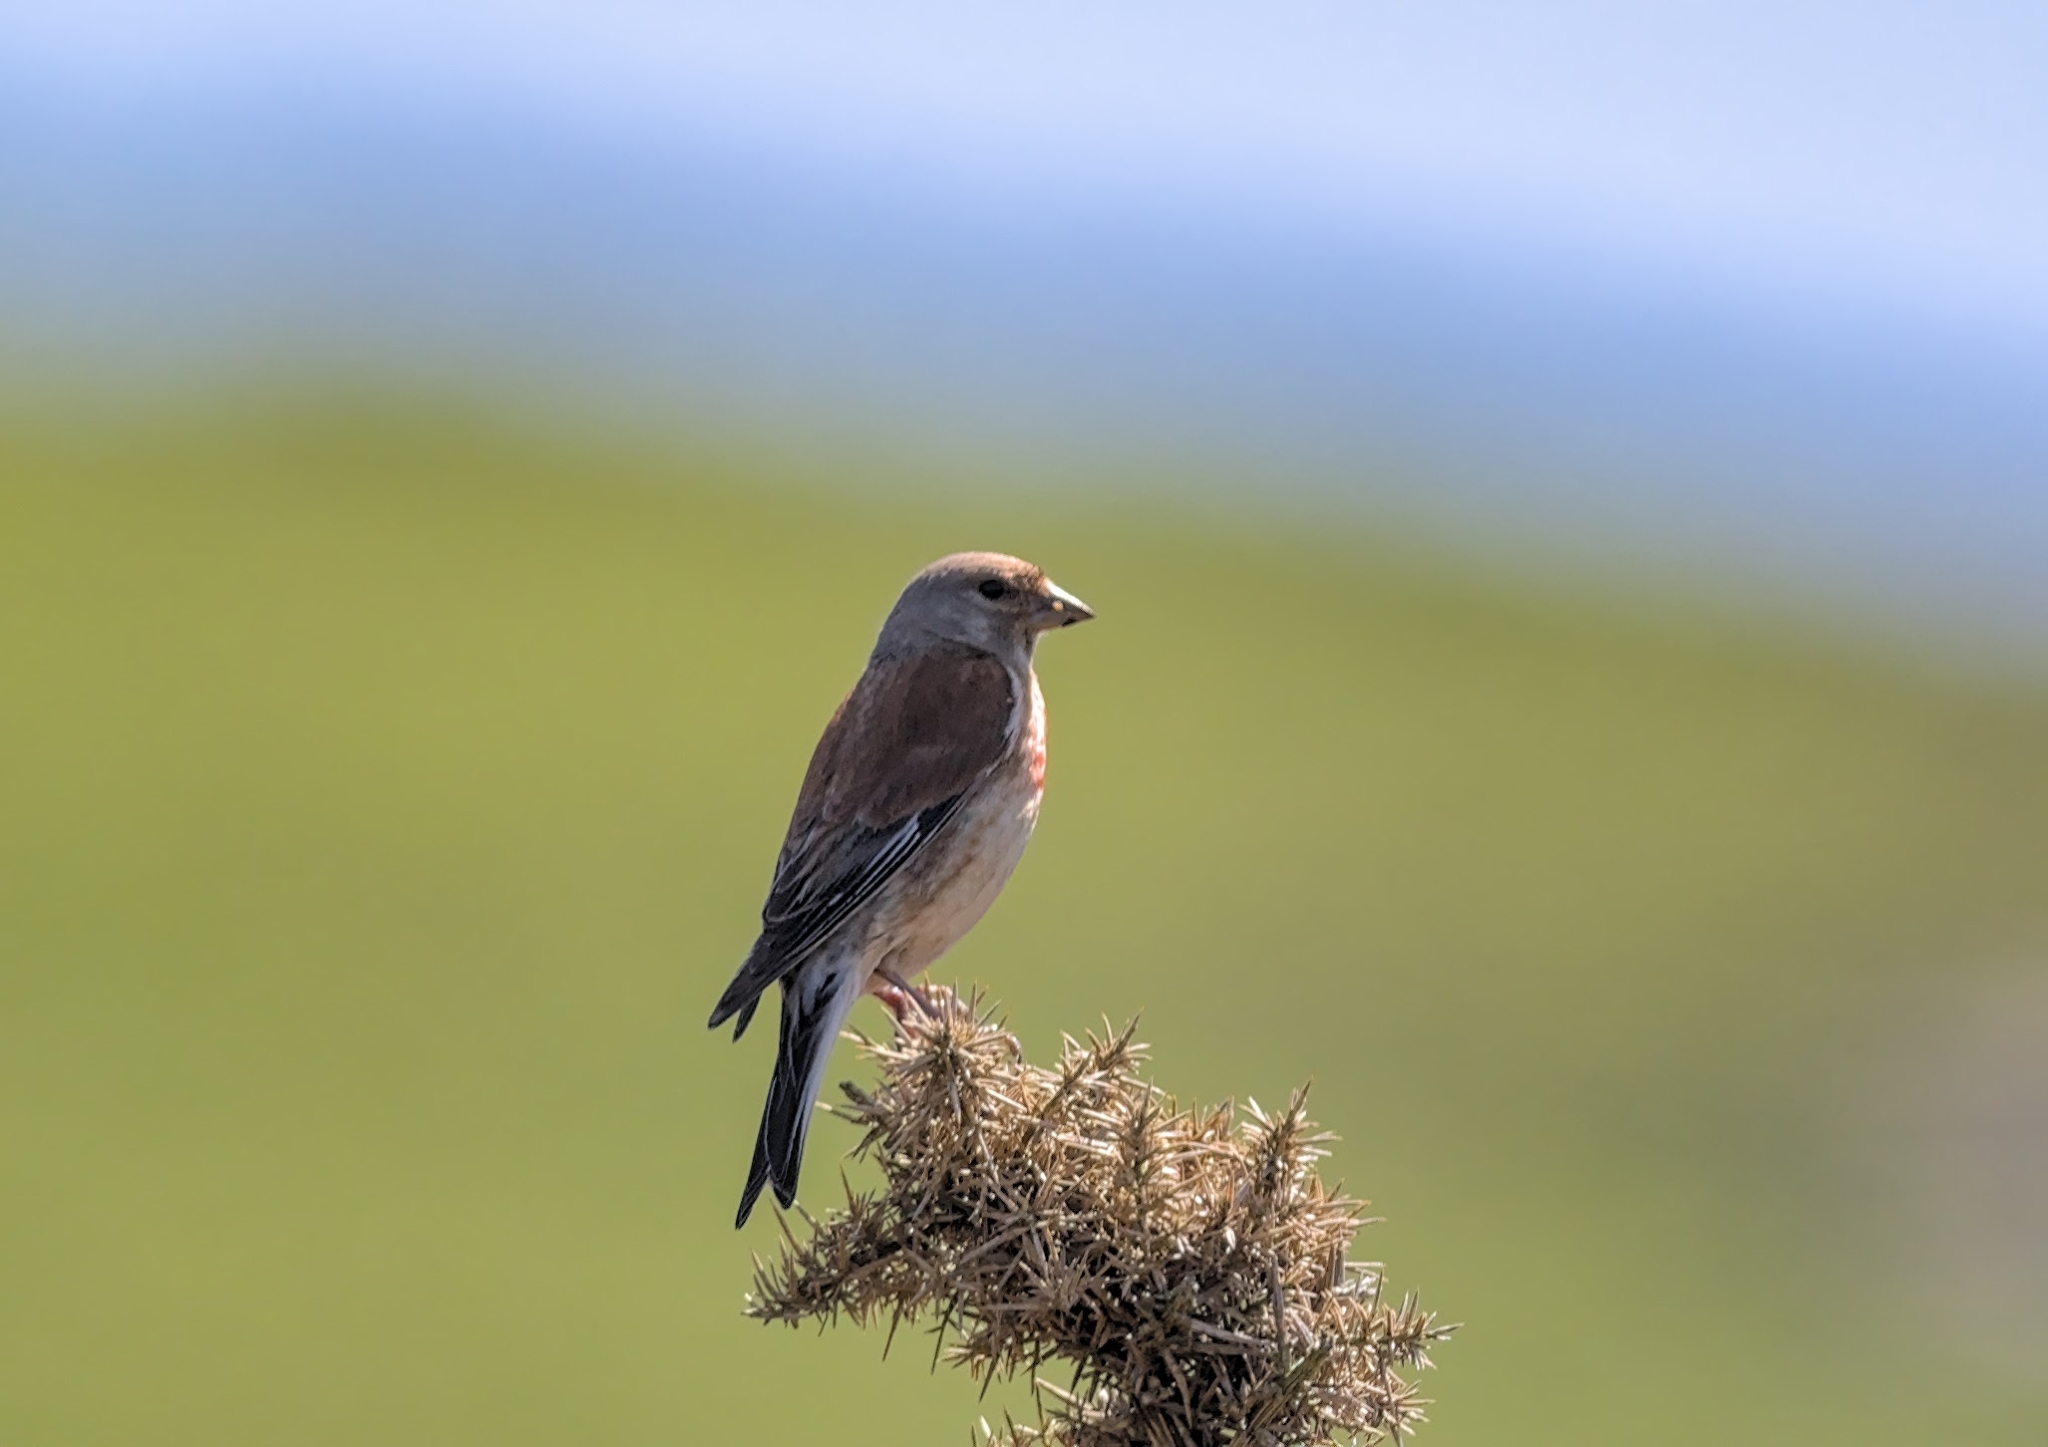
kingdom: Animalia
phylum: Chordata
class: Aves
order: Passeriformes
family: Fringillidae
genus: Linaria
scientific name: Linaria cannabina
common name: Common linnet
